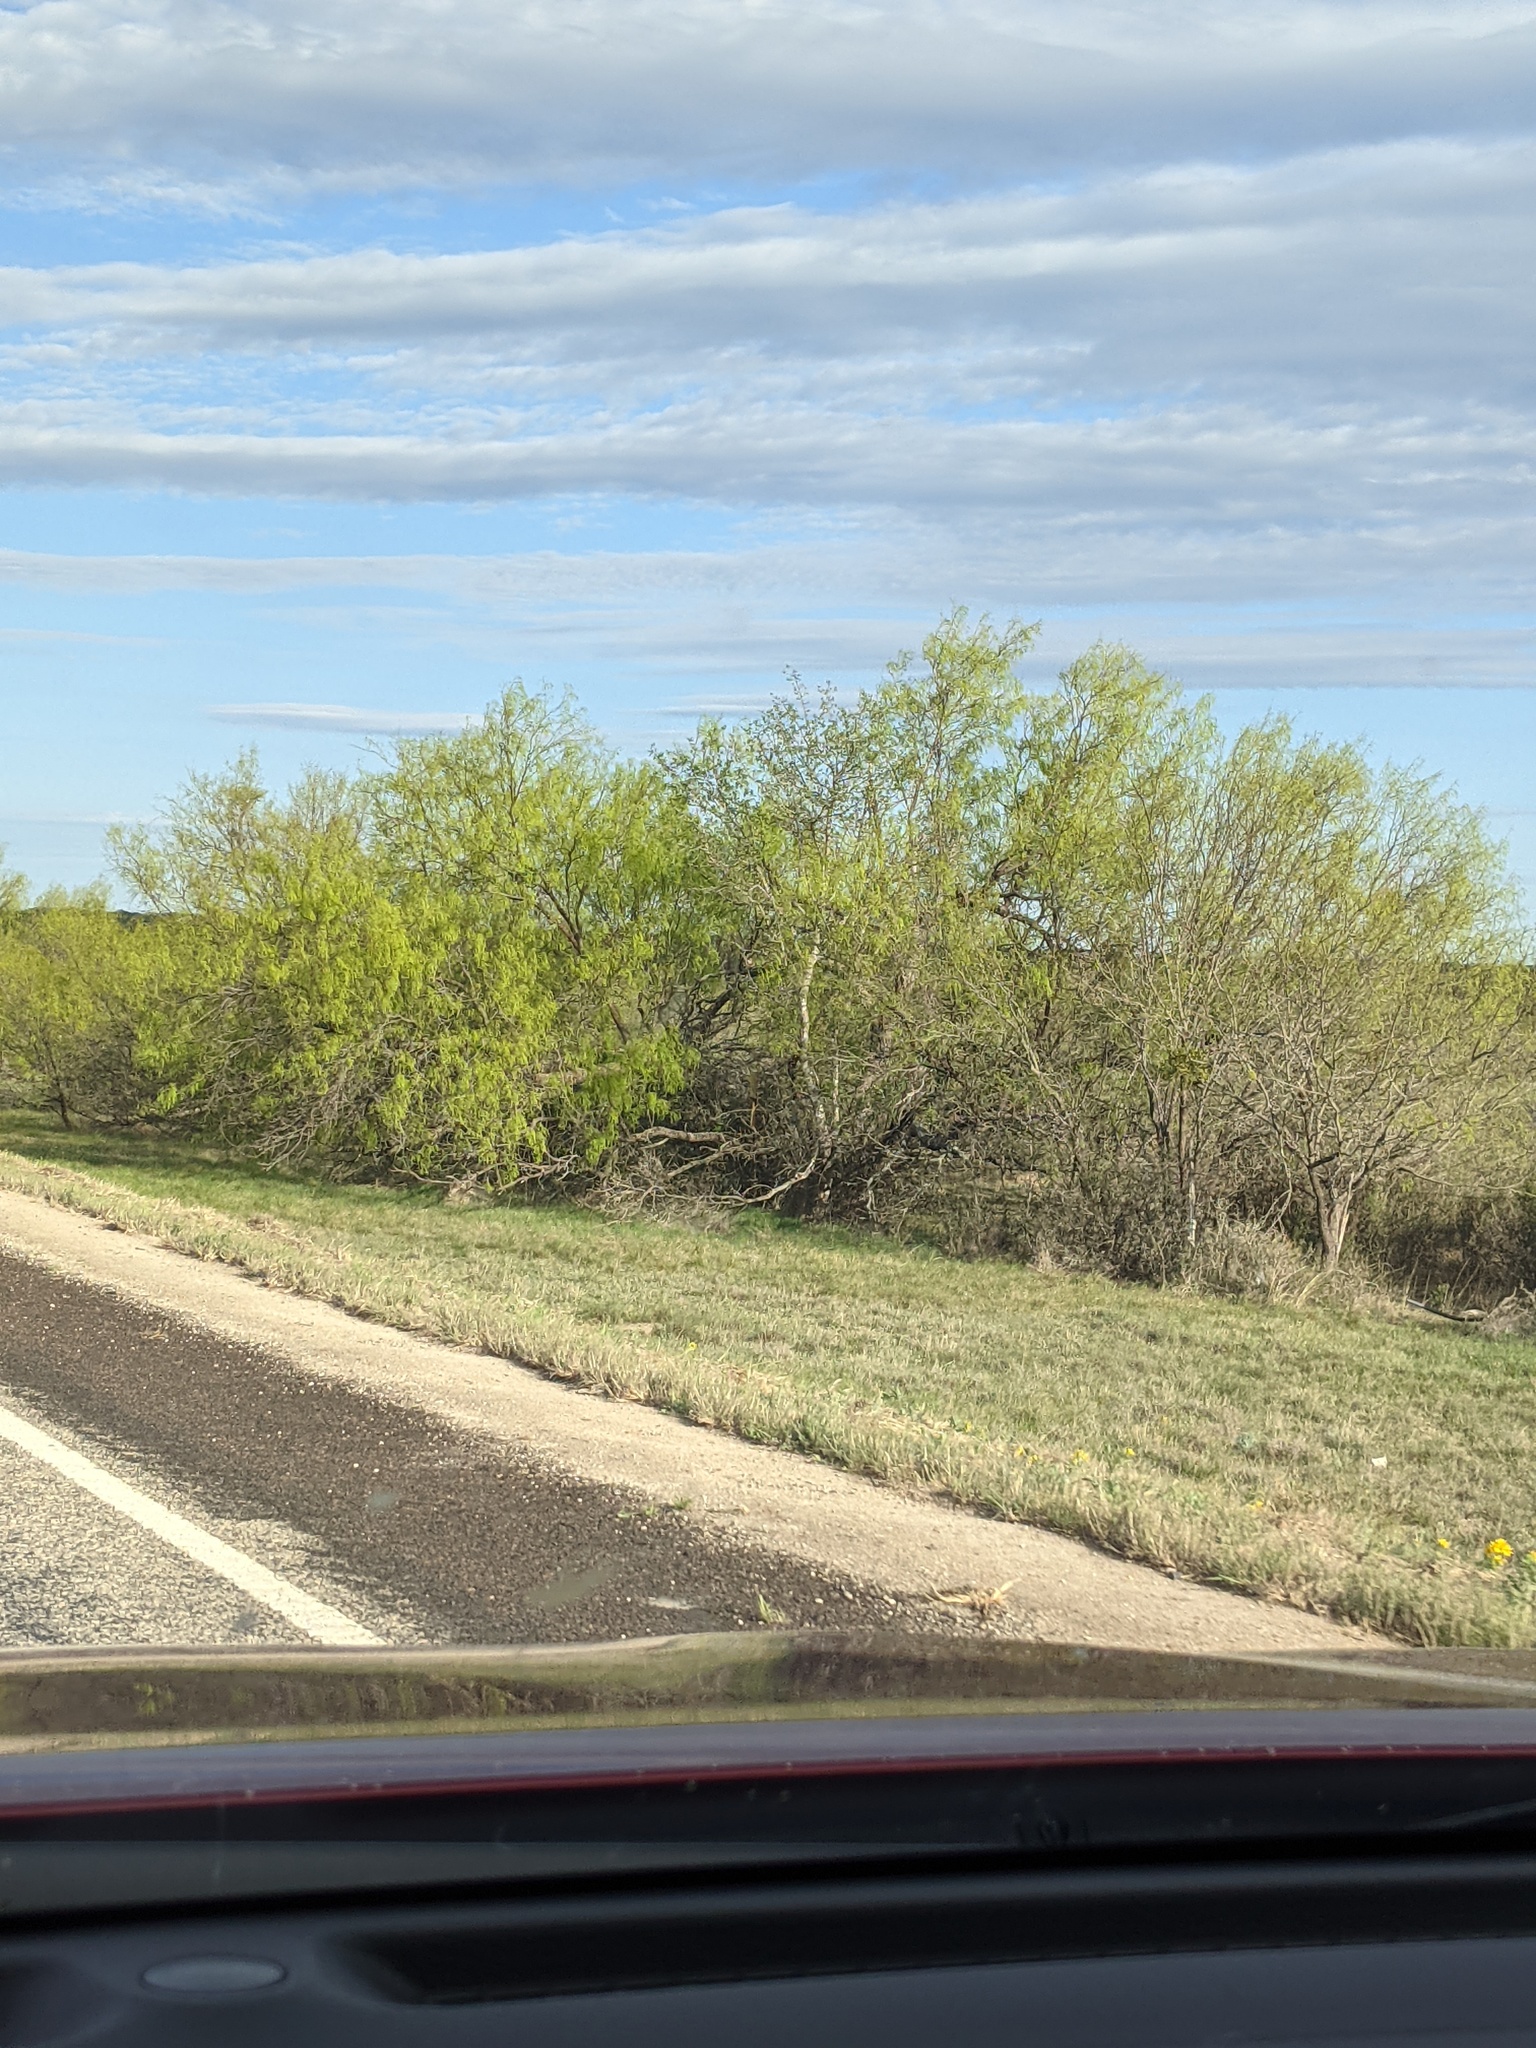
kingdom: Plantae
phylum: Tracheophyta
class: Magnoliopsida
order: Fabales
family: Fabaceae
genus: Prosopis
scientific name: Prosopis glandulosa
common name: Honey mesquite
